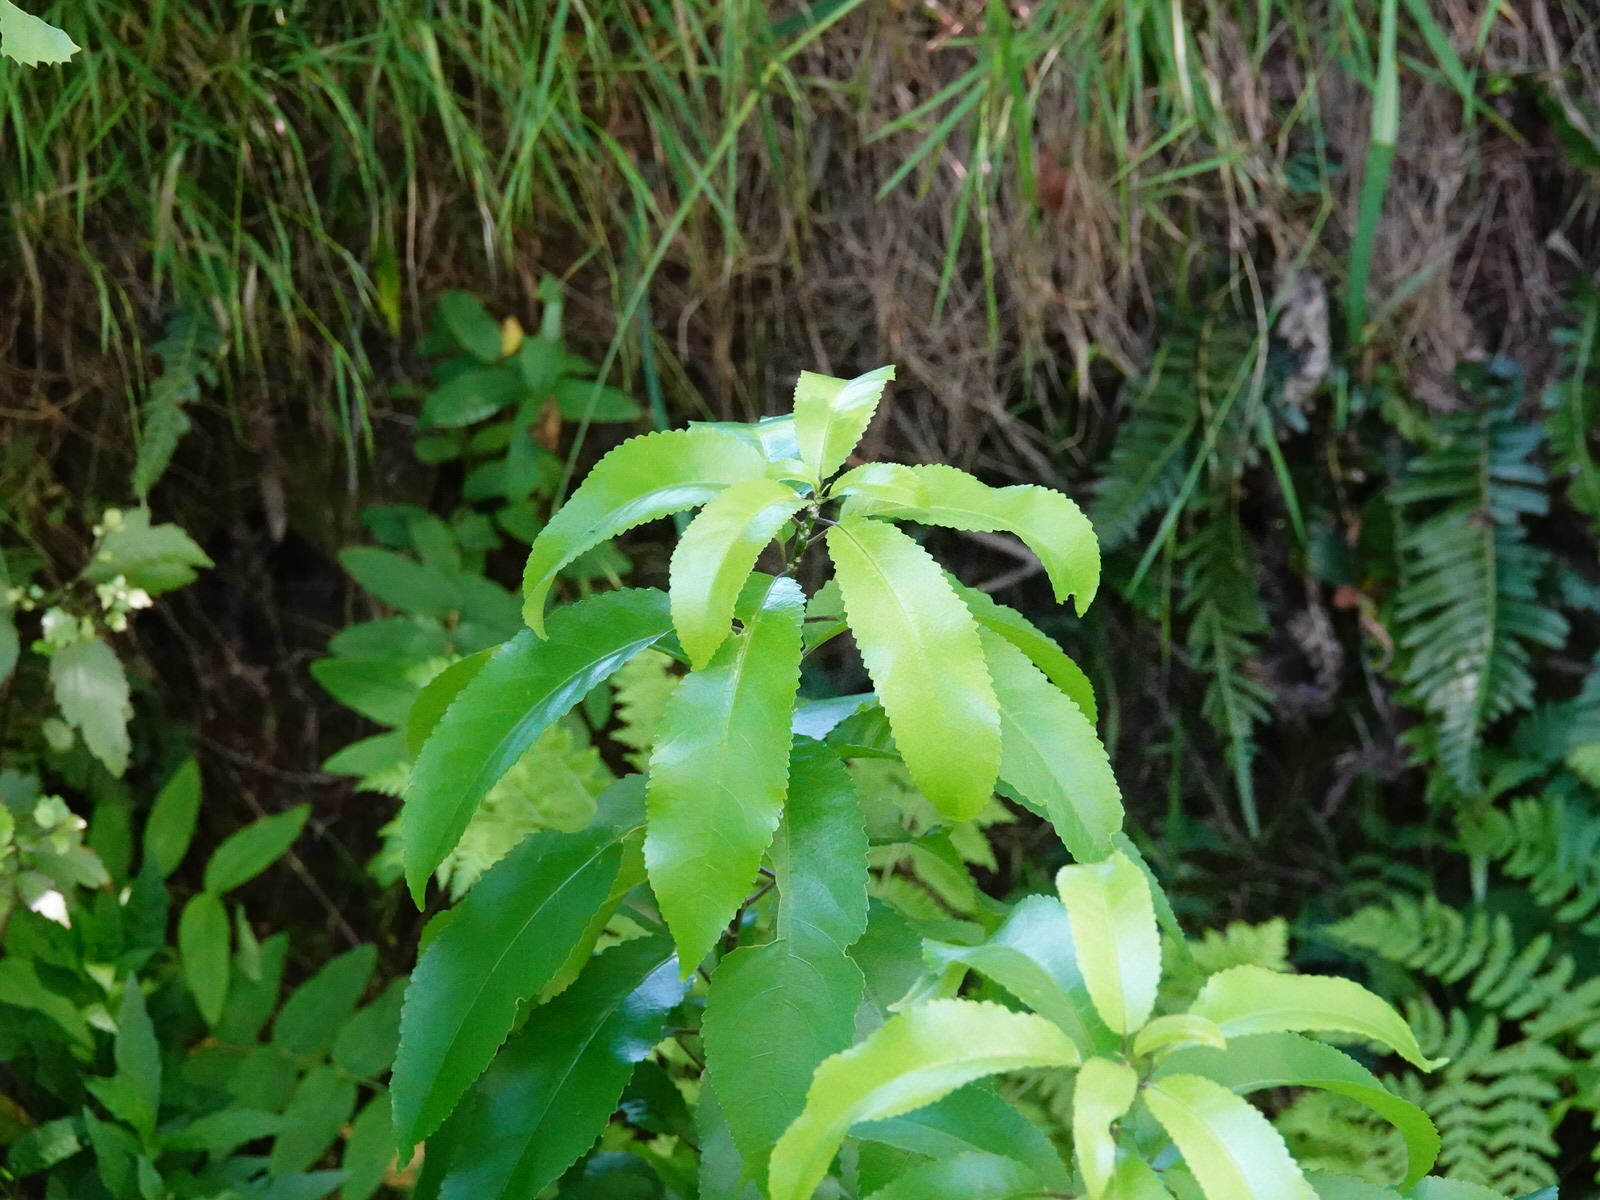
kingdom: Plantae
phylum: Tracheophyta
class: Magnoliopsida
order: Malpighiales
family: Violaceae
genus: Melicytus
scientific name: Melicytus ramiflorus
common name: Mahoe
